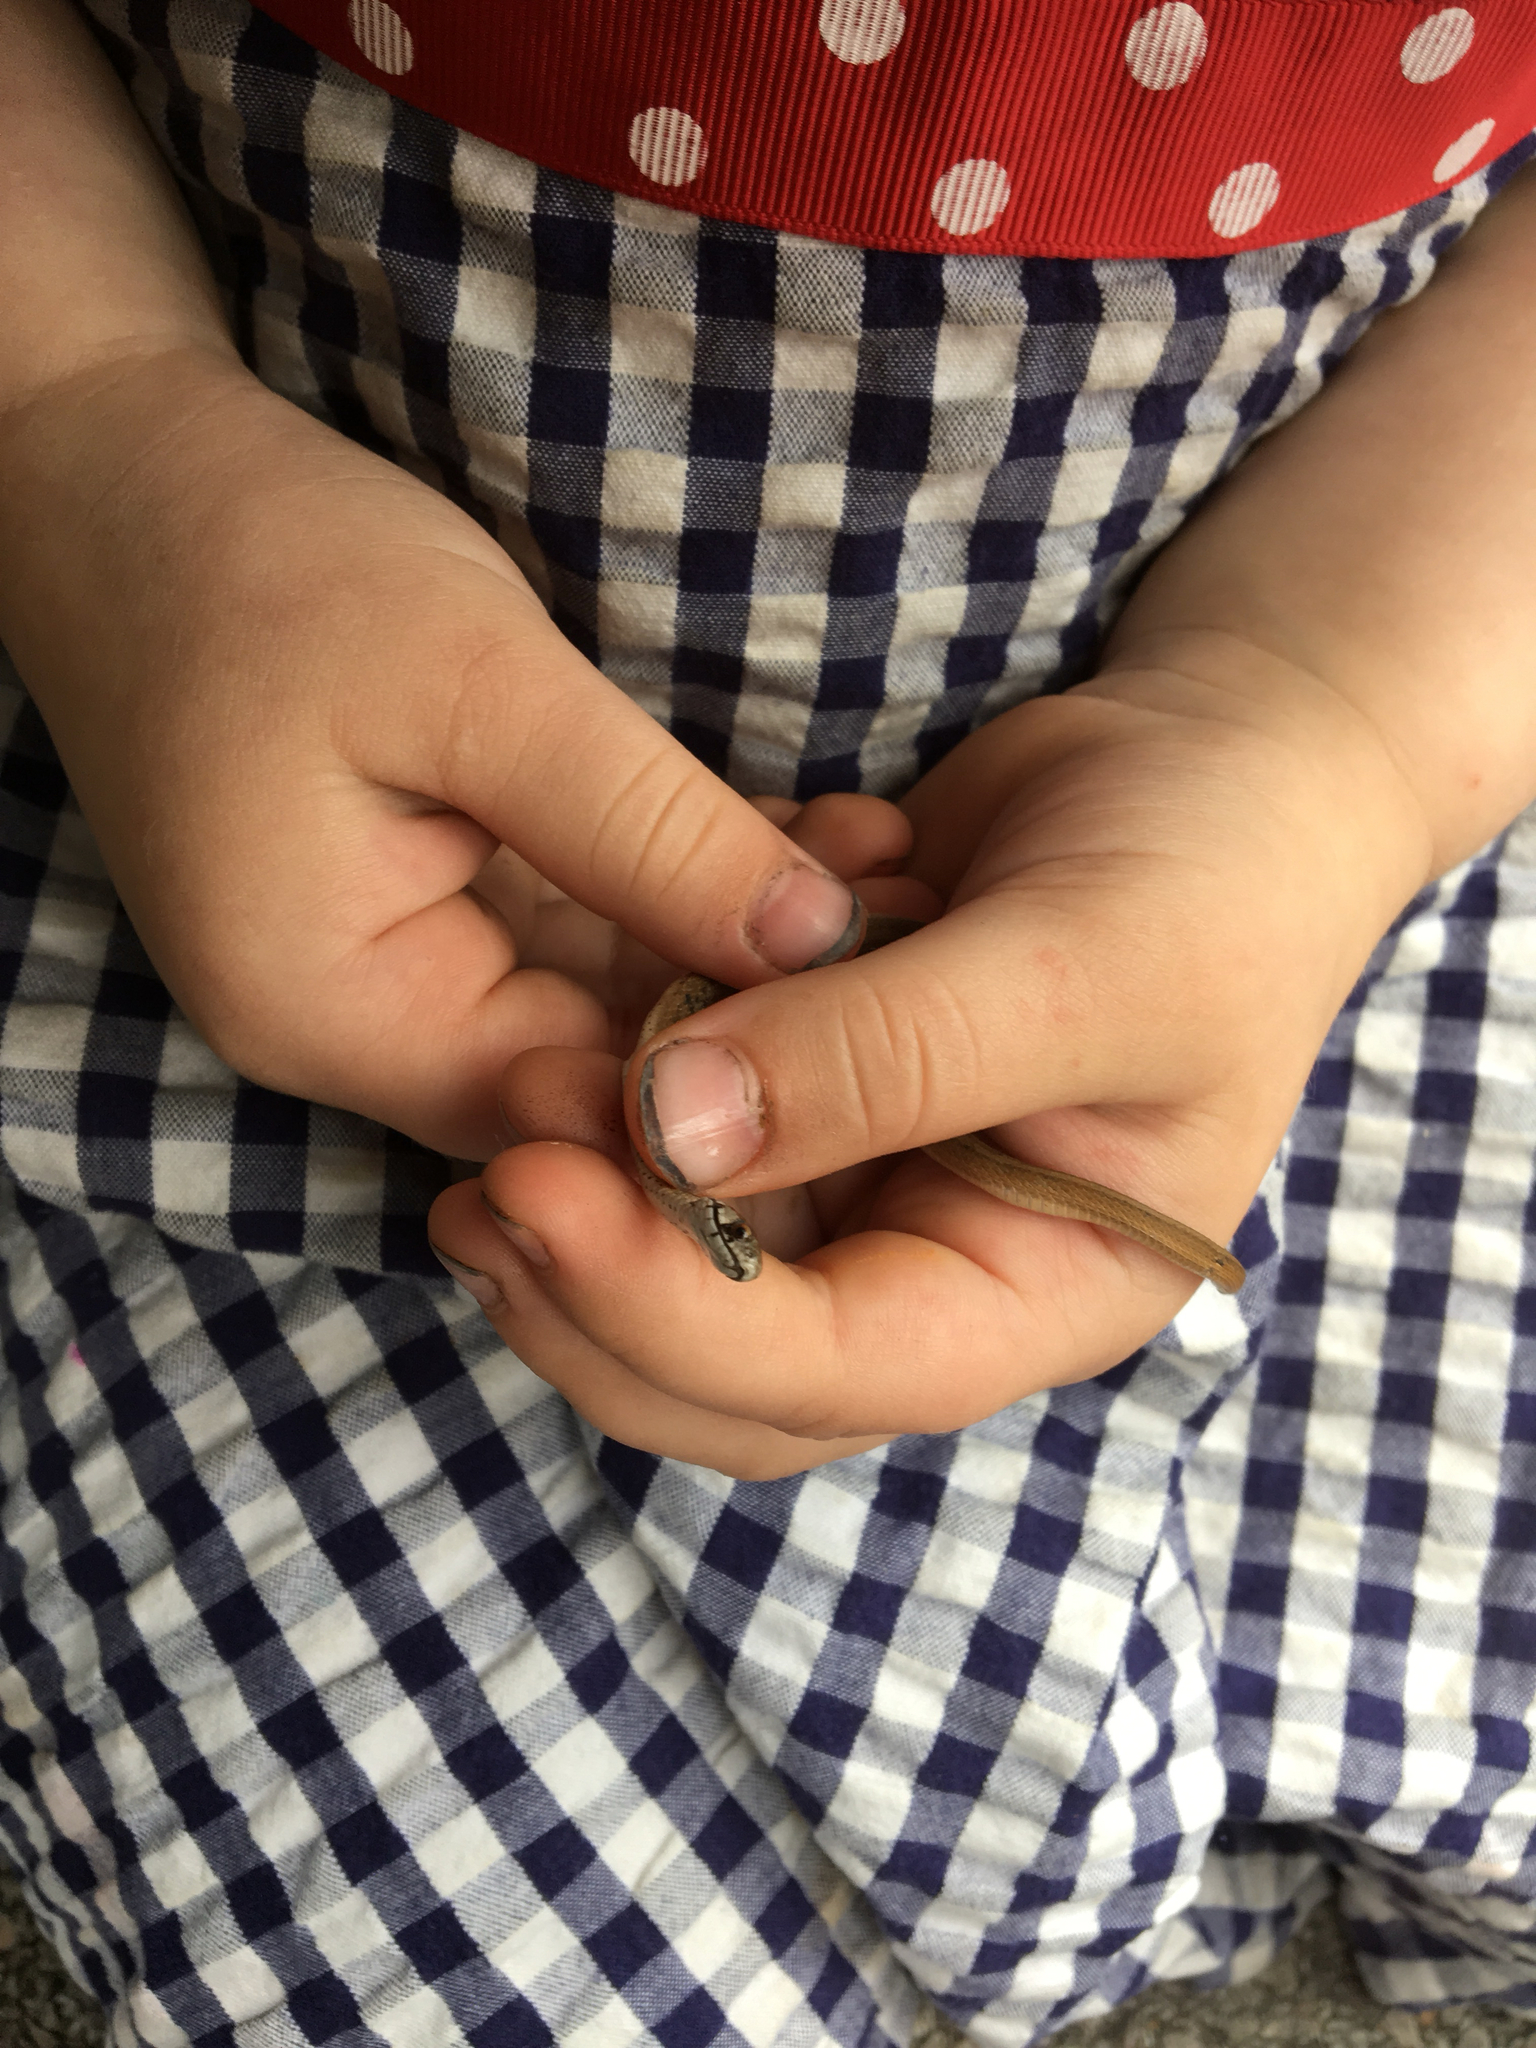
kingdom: Animalia
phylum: Chordata
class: Squamata
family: Colubridae
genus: Storeria
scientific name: Storeria dekayi
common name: (dekay’s) brown snake
